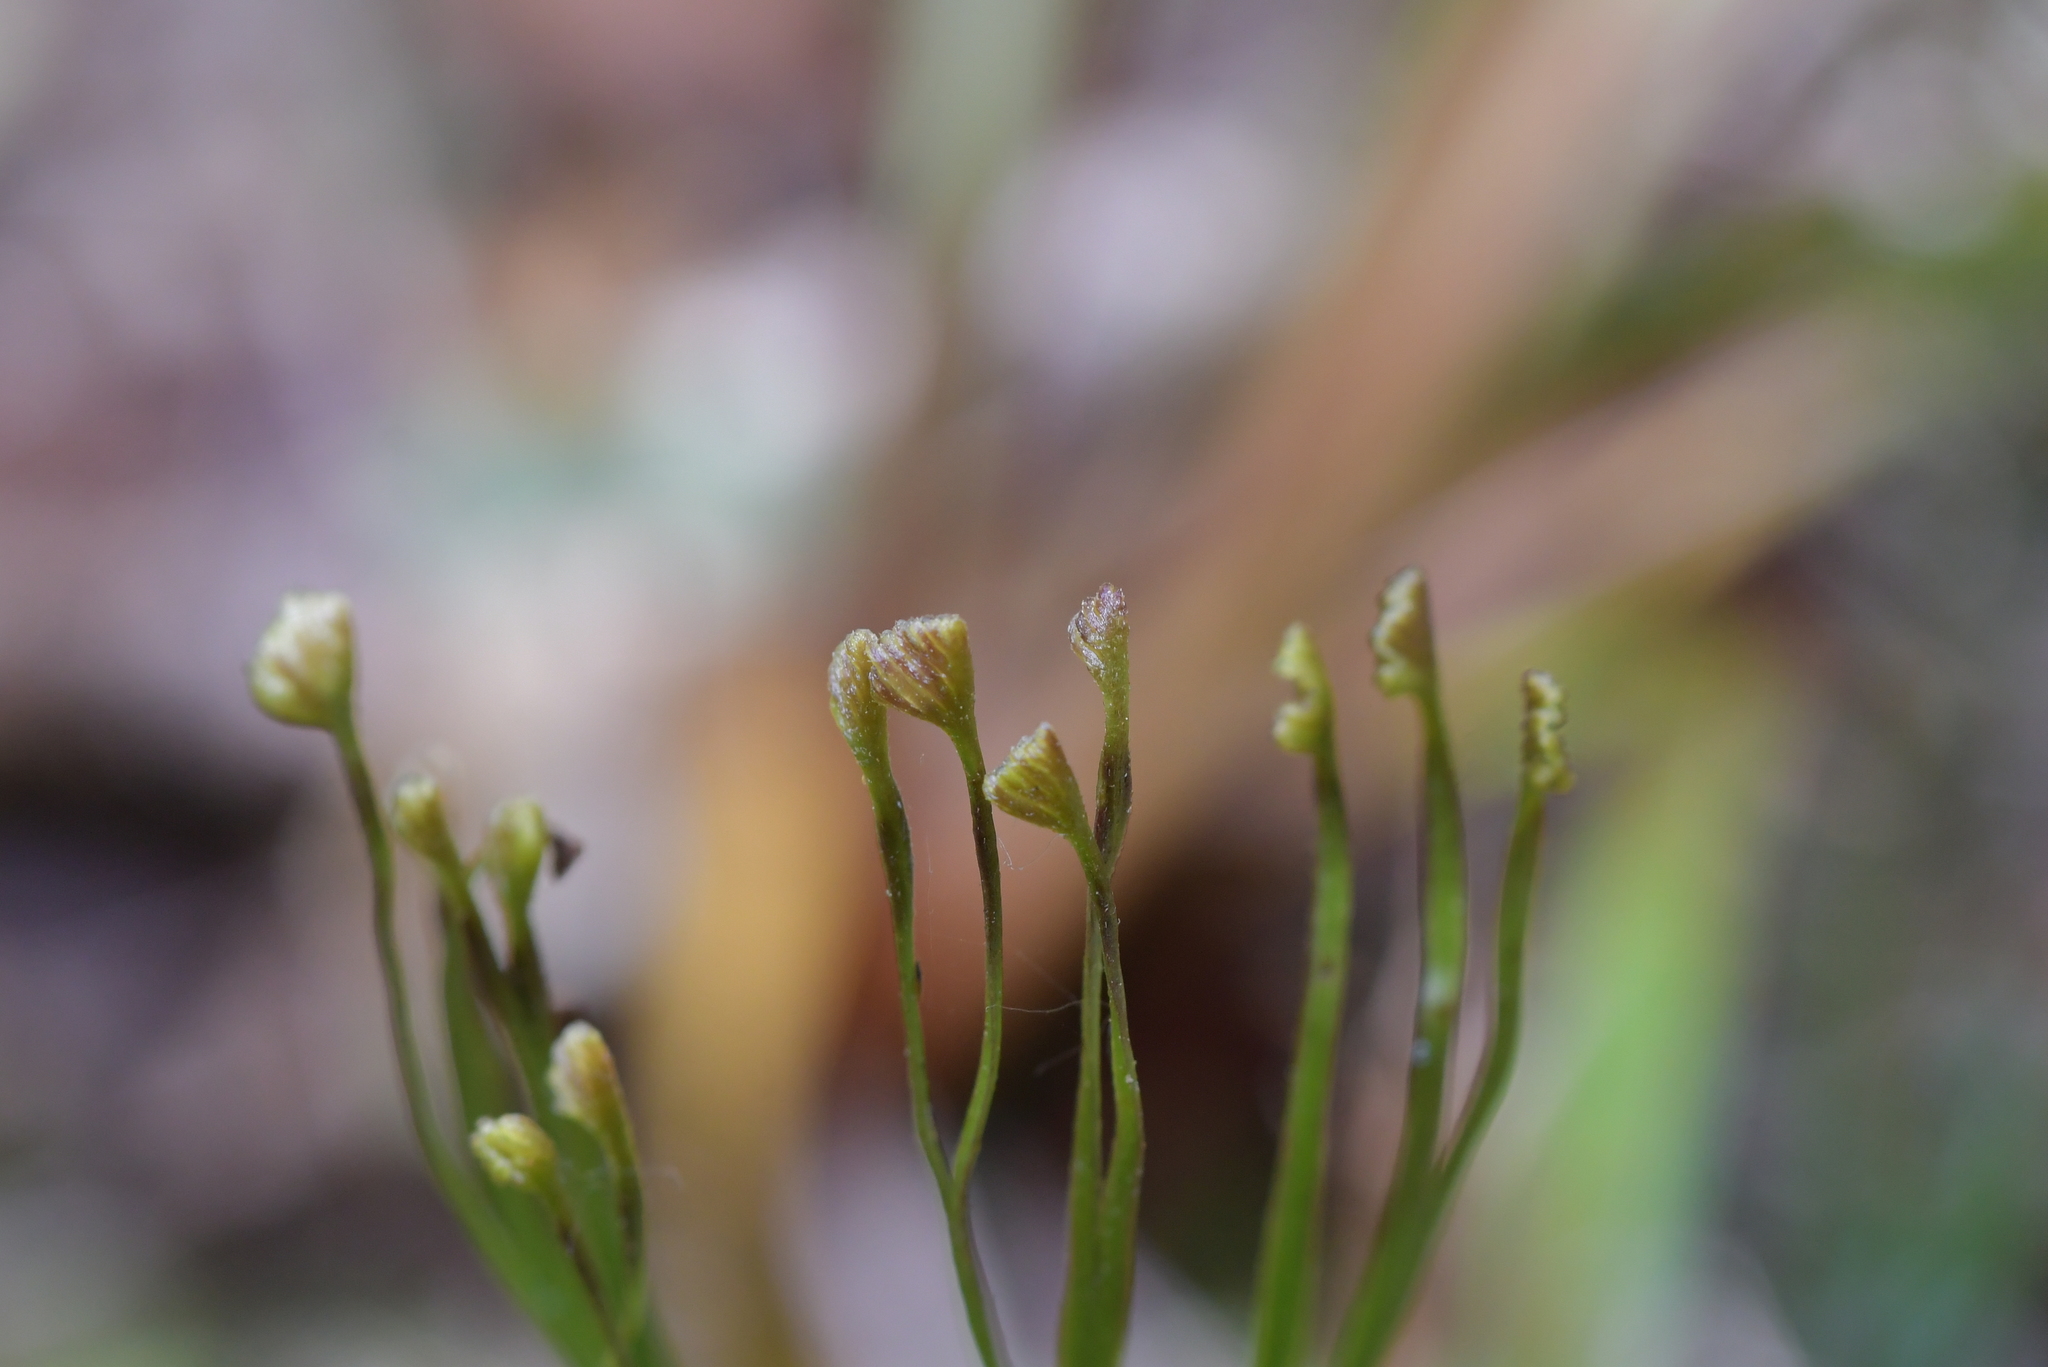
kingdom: Plantae
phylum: Tracheophyta
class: Polypodiopsida
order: Schizaeales
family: Schizaeaceae
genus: Schizaea
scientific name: Schizaea dichotoma
